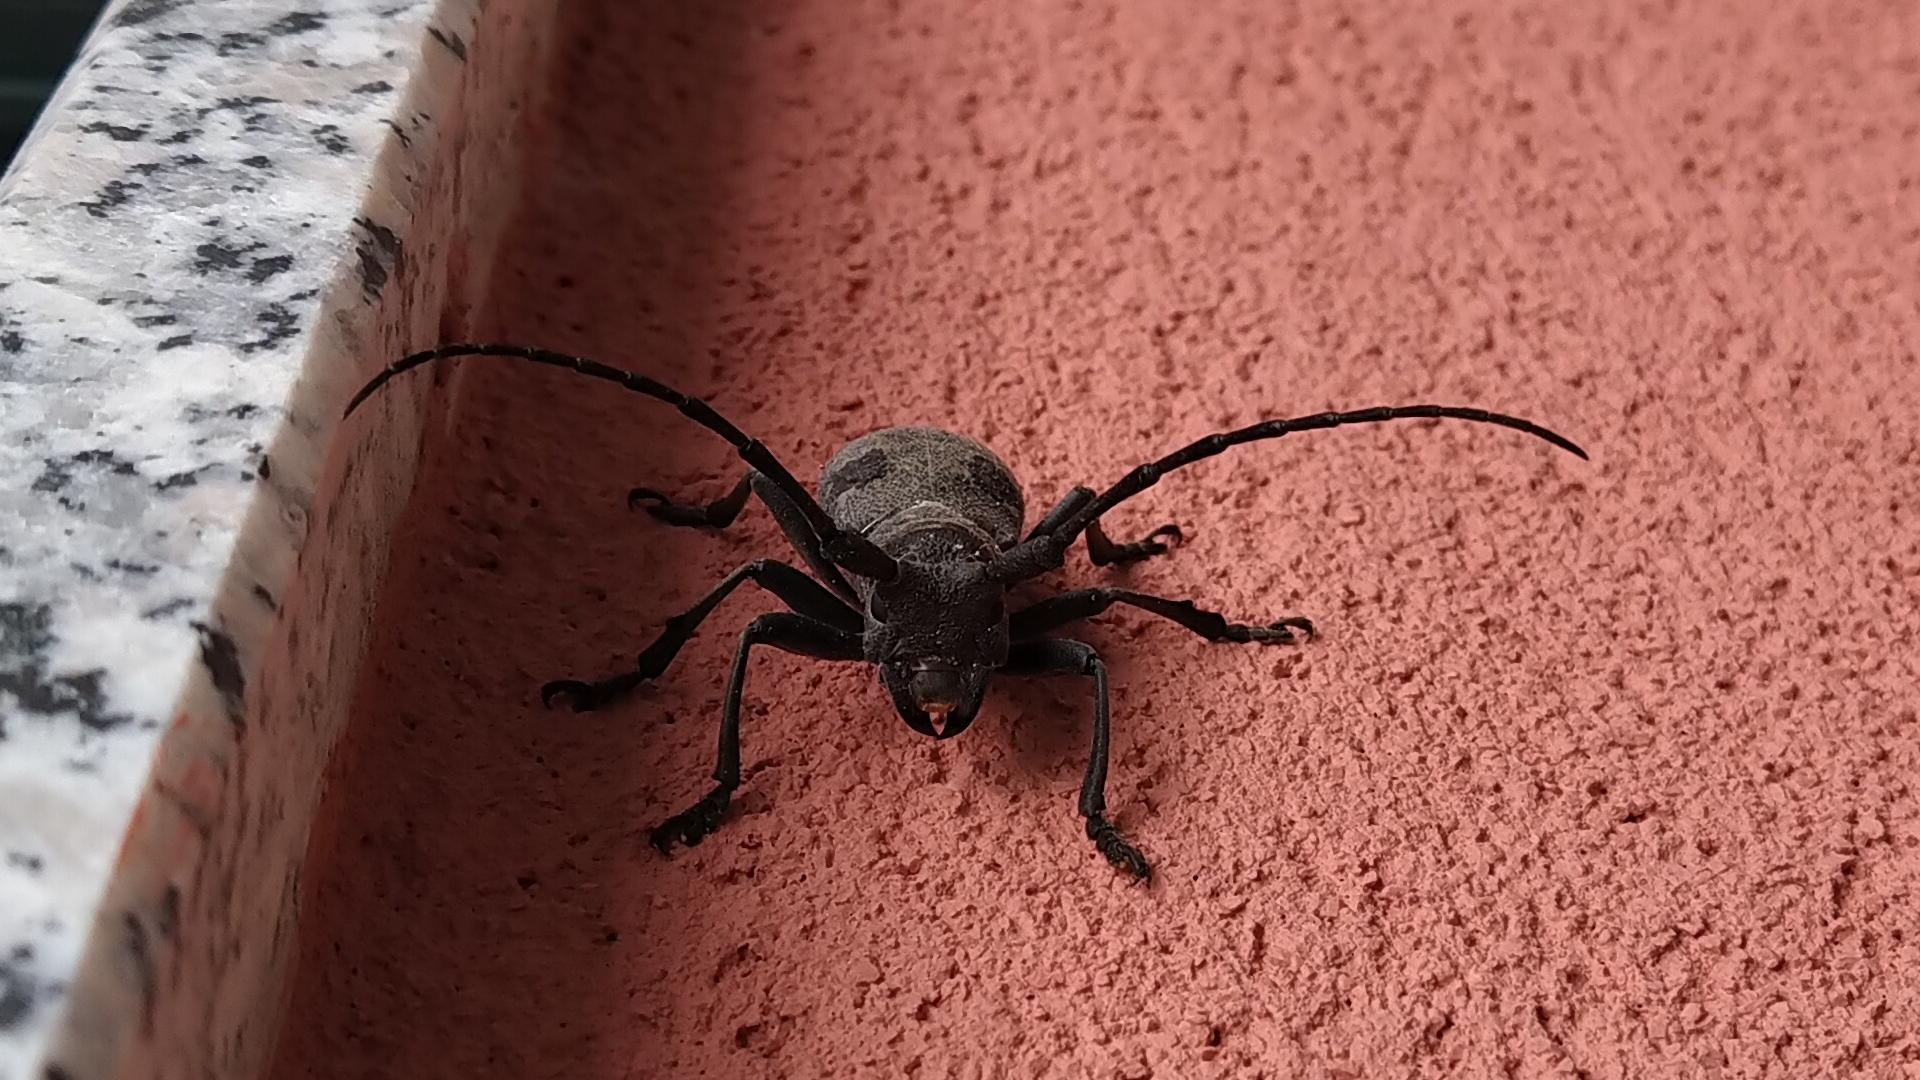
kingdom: Animalia
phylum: Arthropoda
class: Insecta
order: Coleoptera
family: Cerambycidae
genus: Morimus
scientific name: Morimus asper
